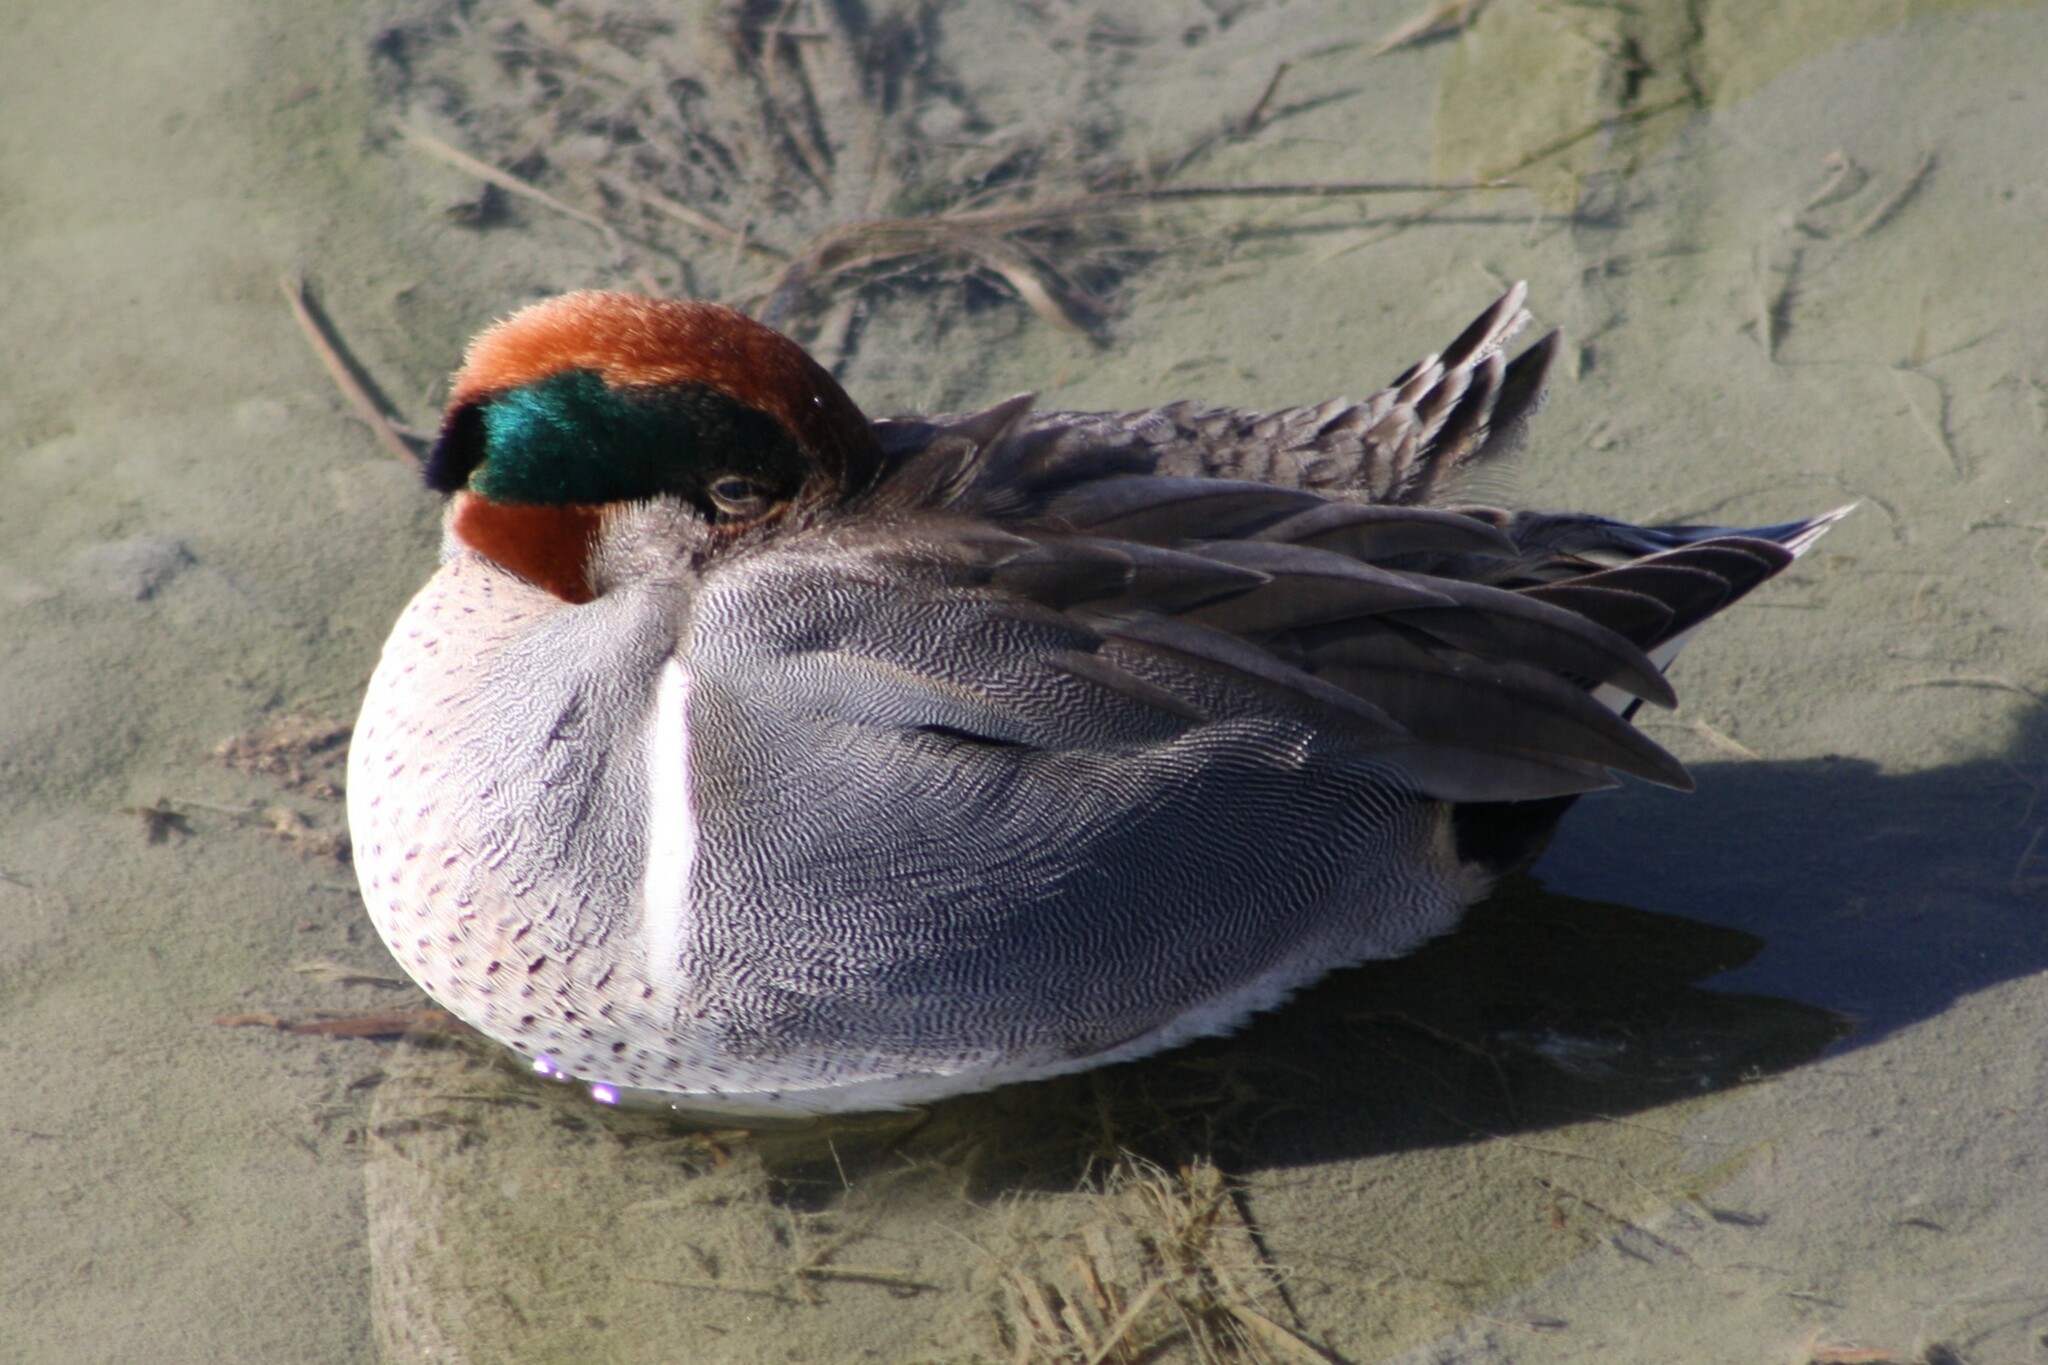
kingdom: Animalia
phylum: Chordata
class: Aves
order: Anseriformes
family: Anatidae
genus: Anas
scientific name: Anas crecca
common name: Eurasian teal
